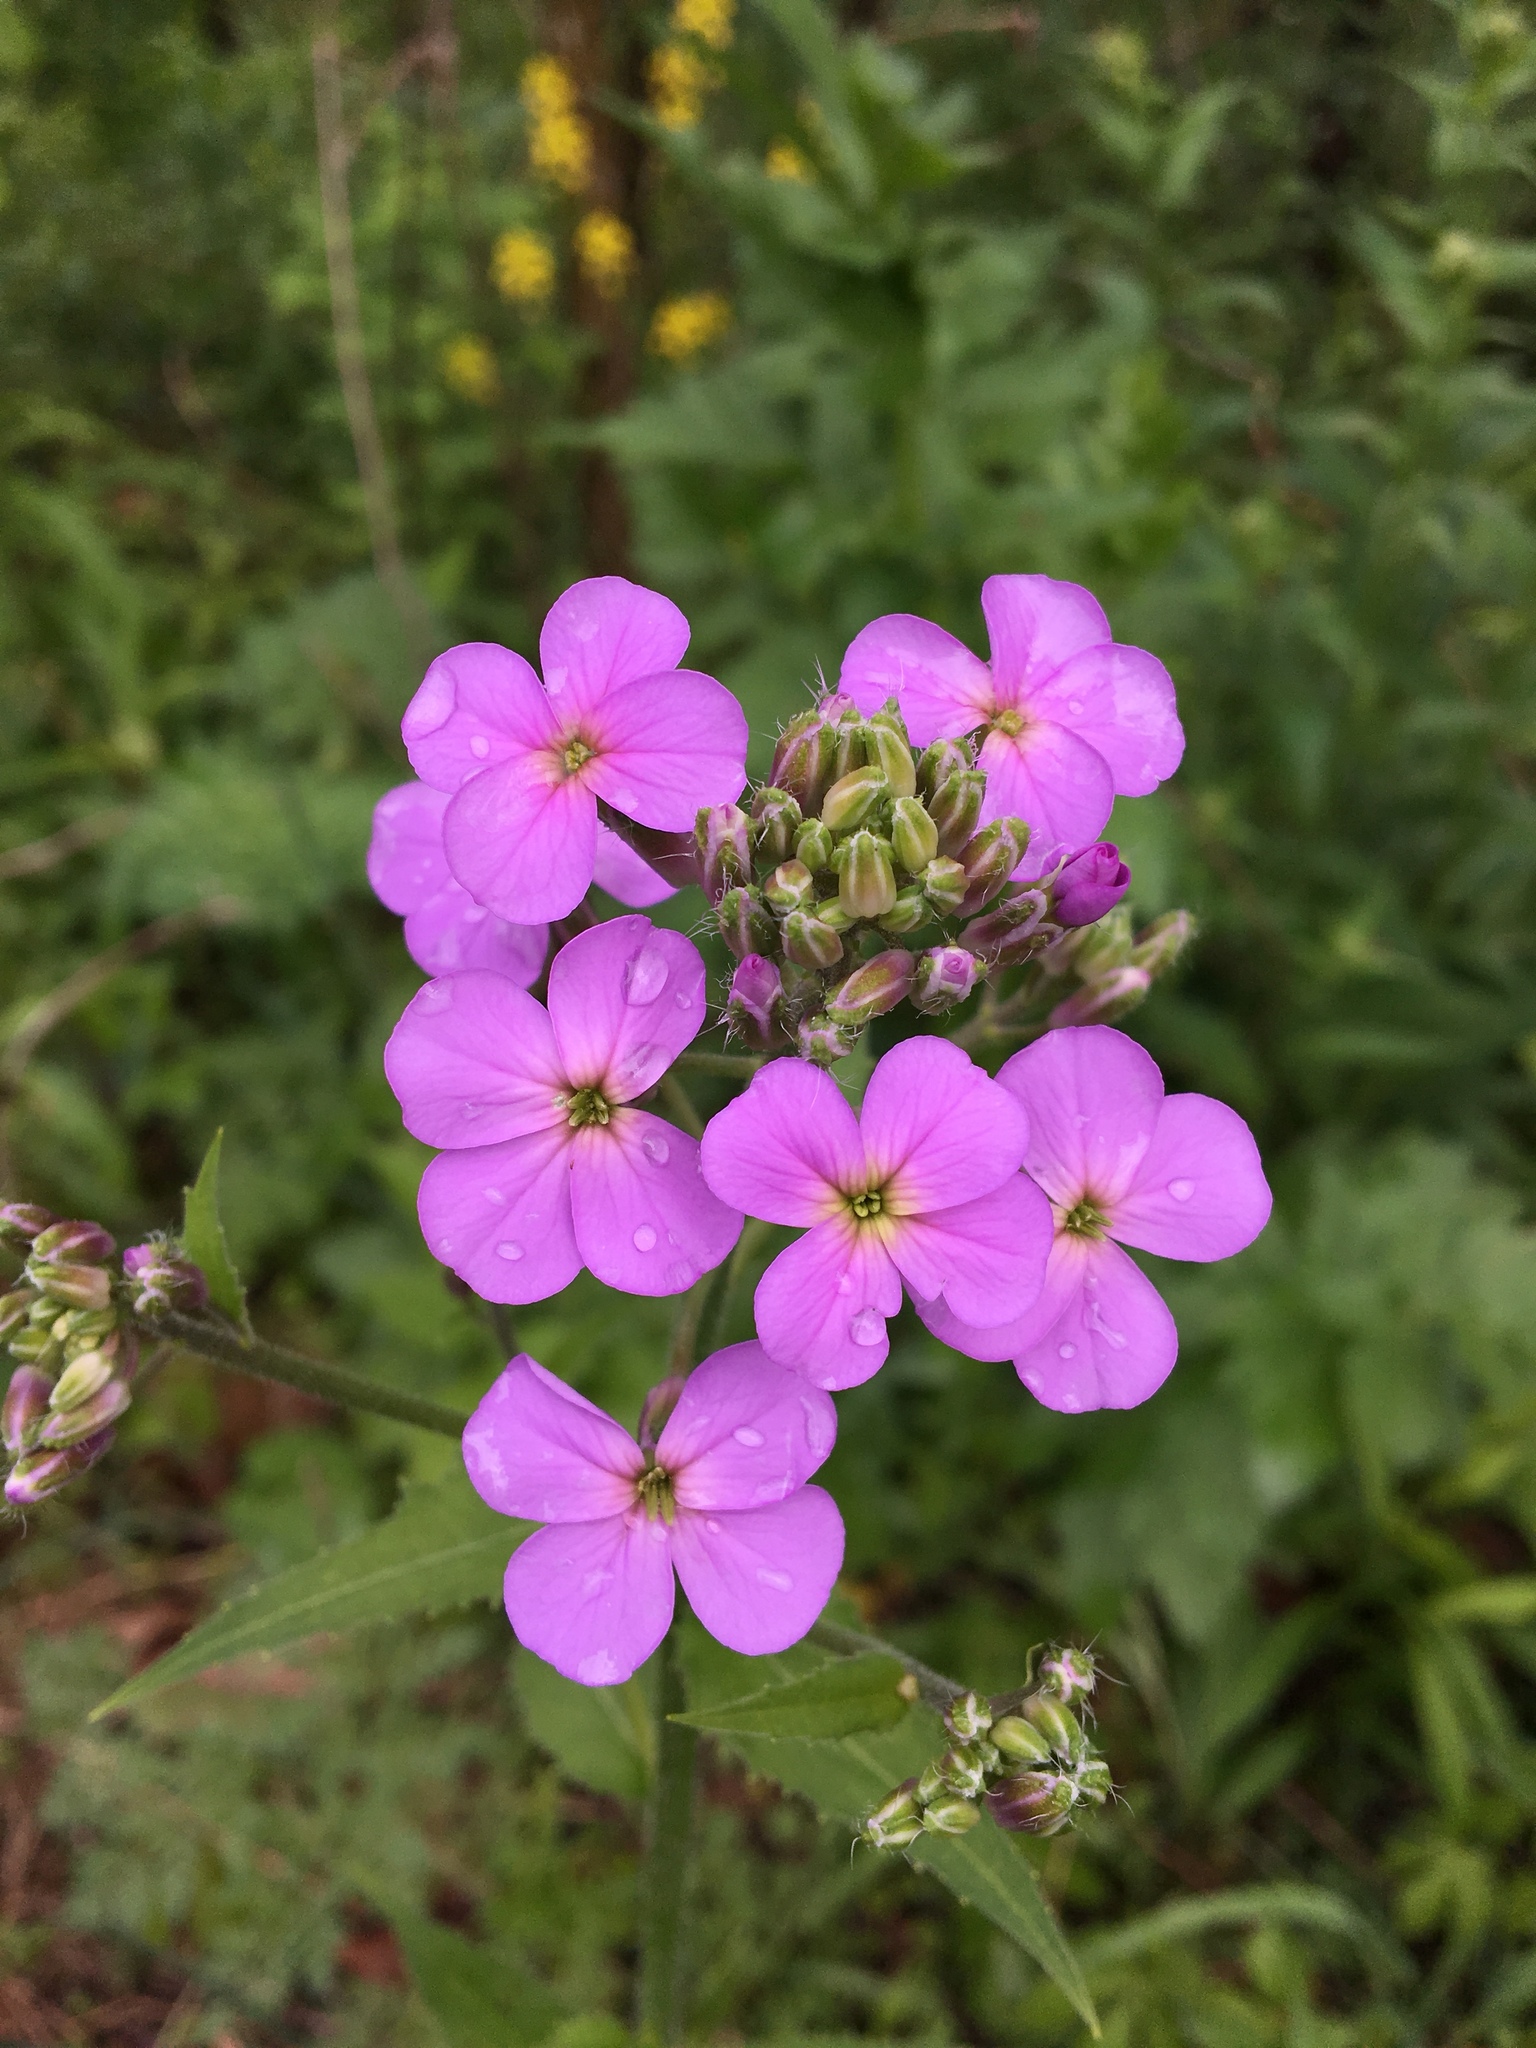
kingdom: Plantae
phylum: Tracheophyta
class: Magnoliopsida
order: Brassicales
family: Brassicaceae
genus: Hesperis
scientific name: Hesperis matronalis
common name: Dame's-violet
